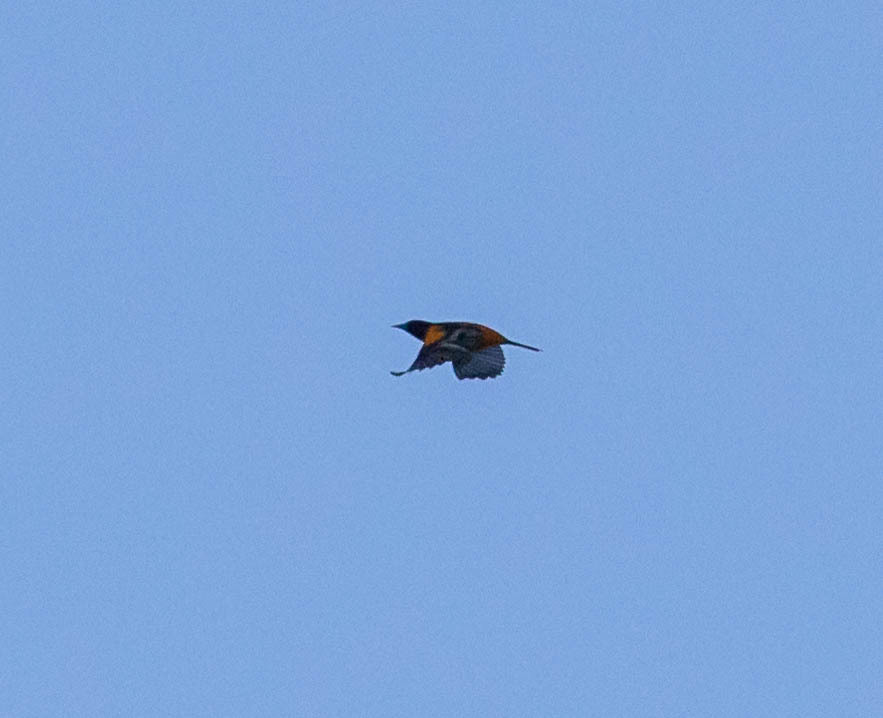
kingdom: Animalia
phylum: Chordata
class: Aves
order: Passeriformes
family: Icteridae
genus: Icterus
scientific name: Icterus galbula
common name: Baltimore oriole
